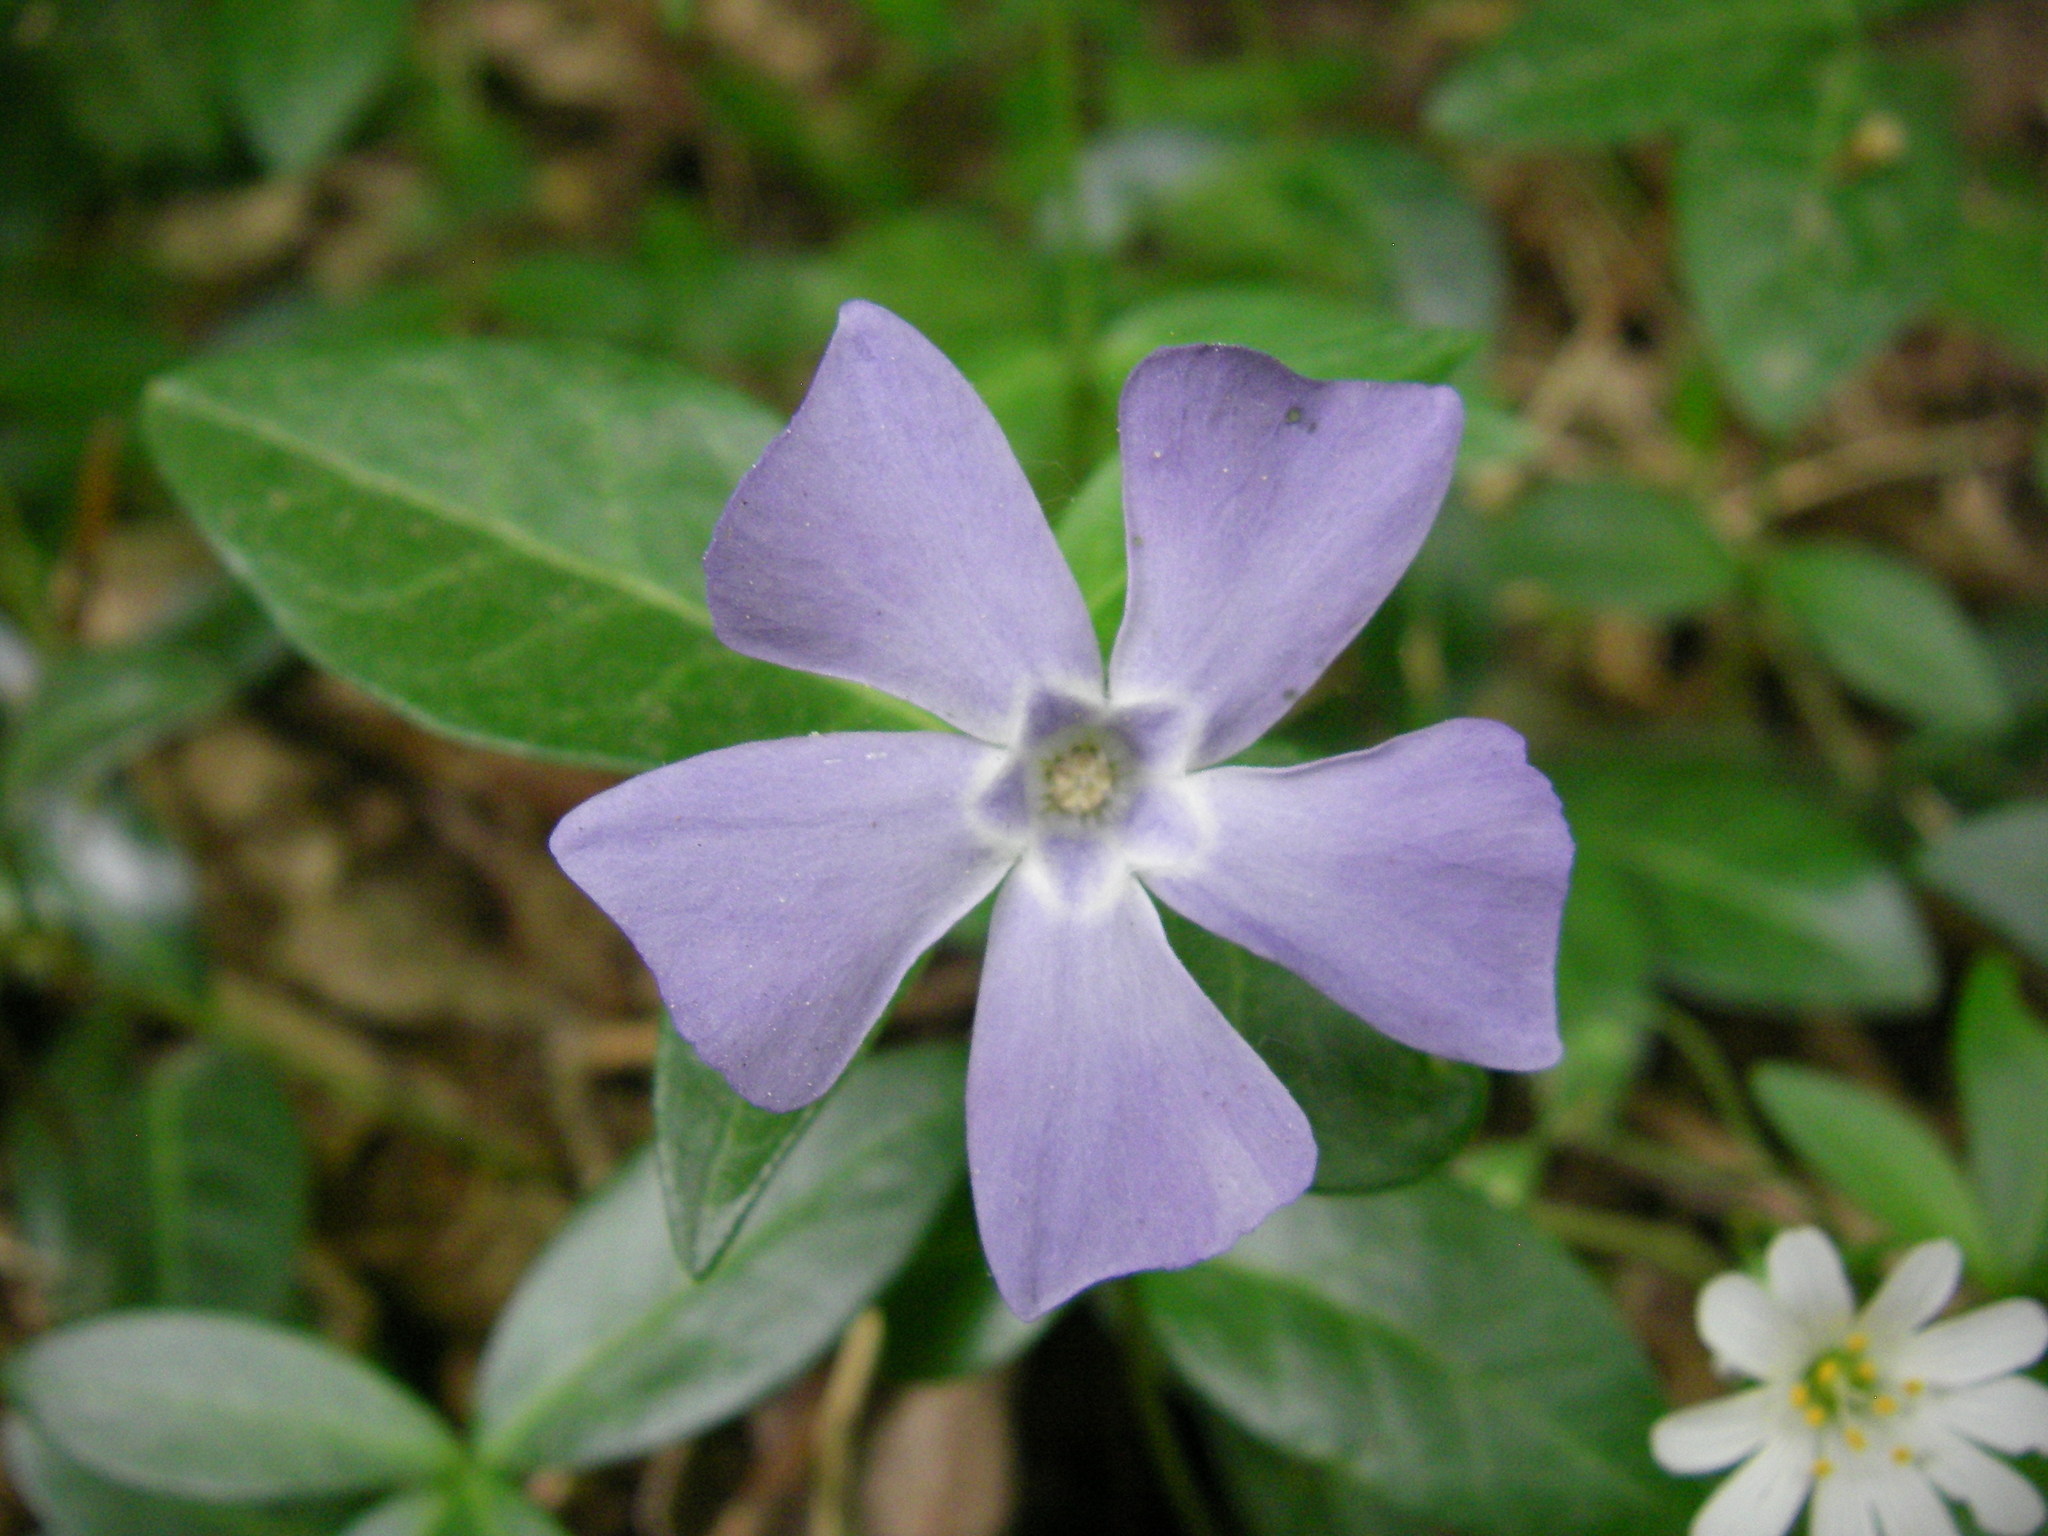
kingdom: Plantae
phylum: Tracheophyta
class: Magnoliopsida
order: Gentianales
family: Apocynaceae
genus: Vinca
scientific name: Vinca minor
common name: Lesser periwinkle
